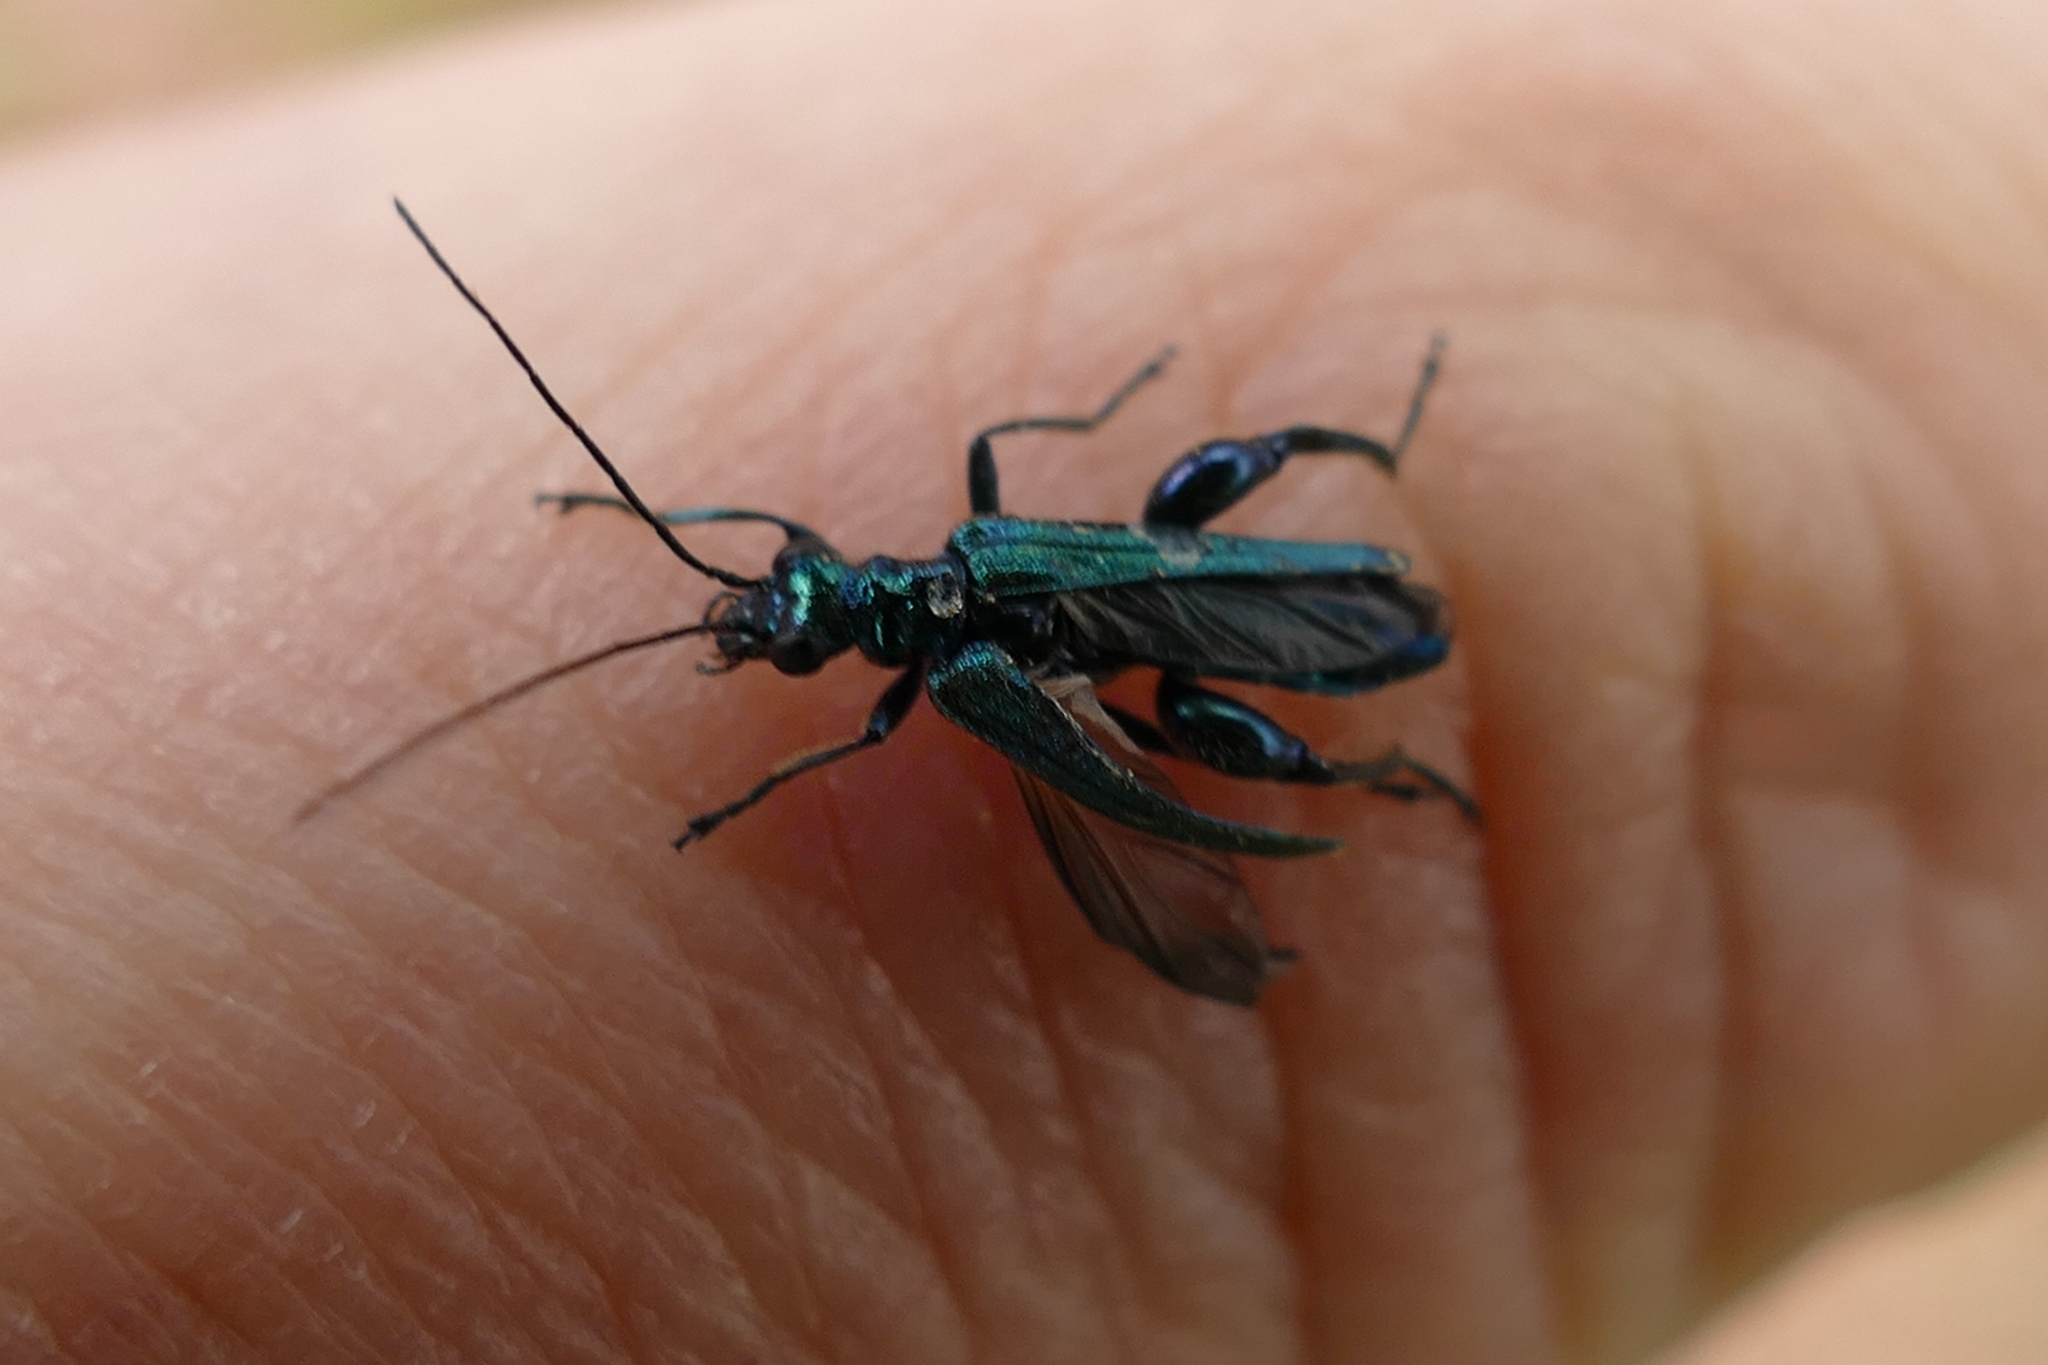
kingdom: Animalia
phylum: Arthropoda
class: Insecta
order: Coleoptera
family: Oedemeridae
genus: Oedemera
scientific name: Oedemera nobilis
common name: Swollen-thighed beetle
